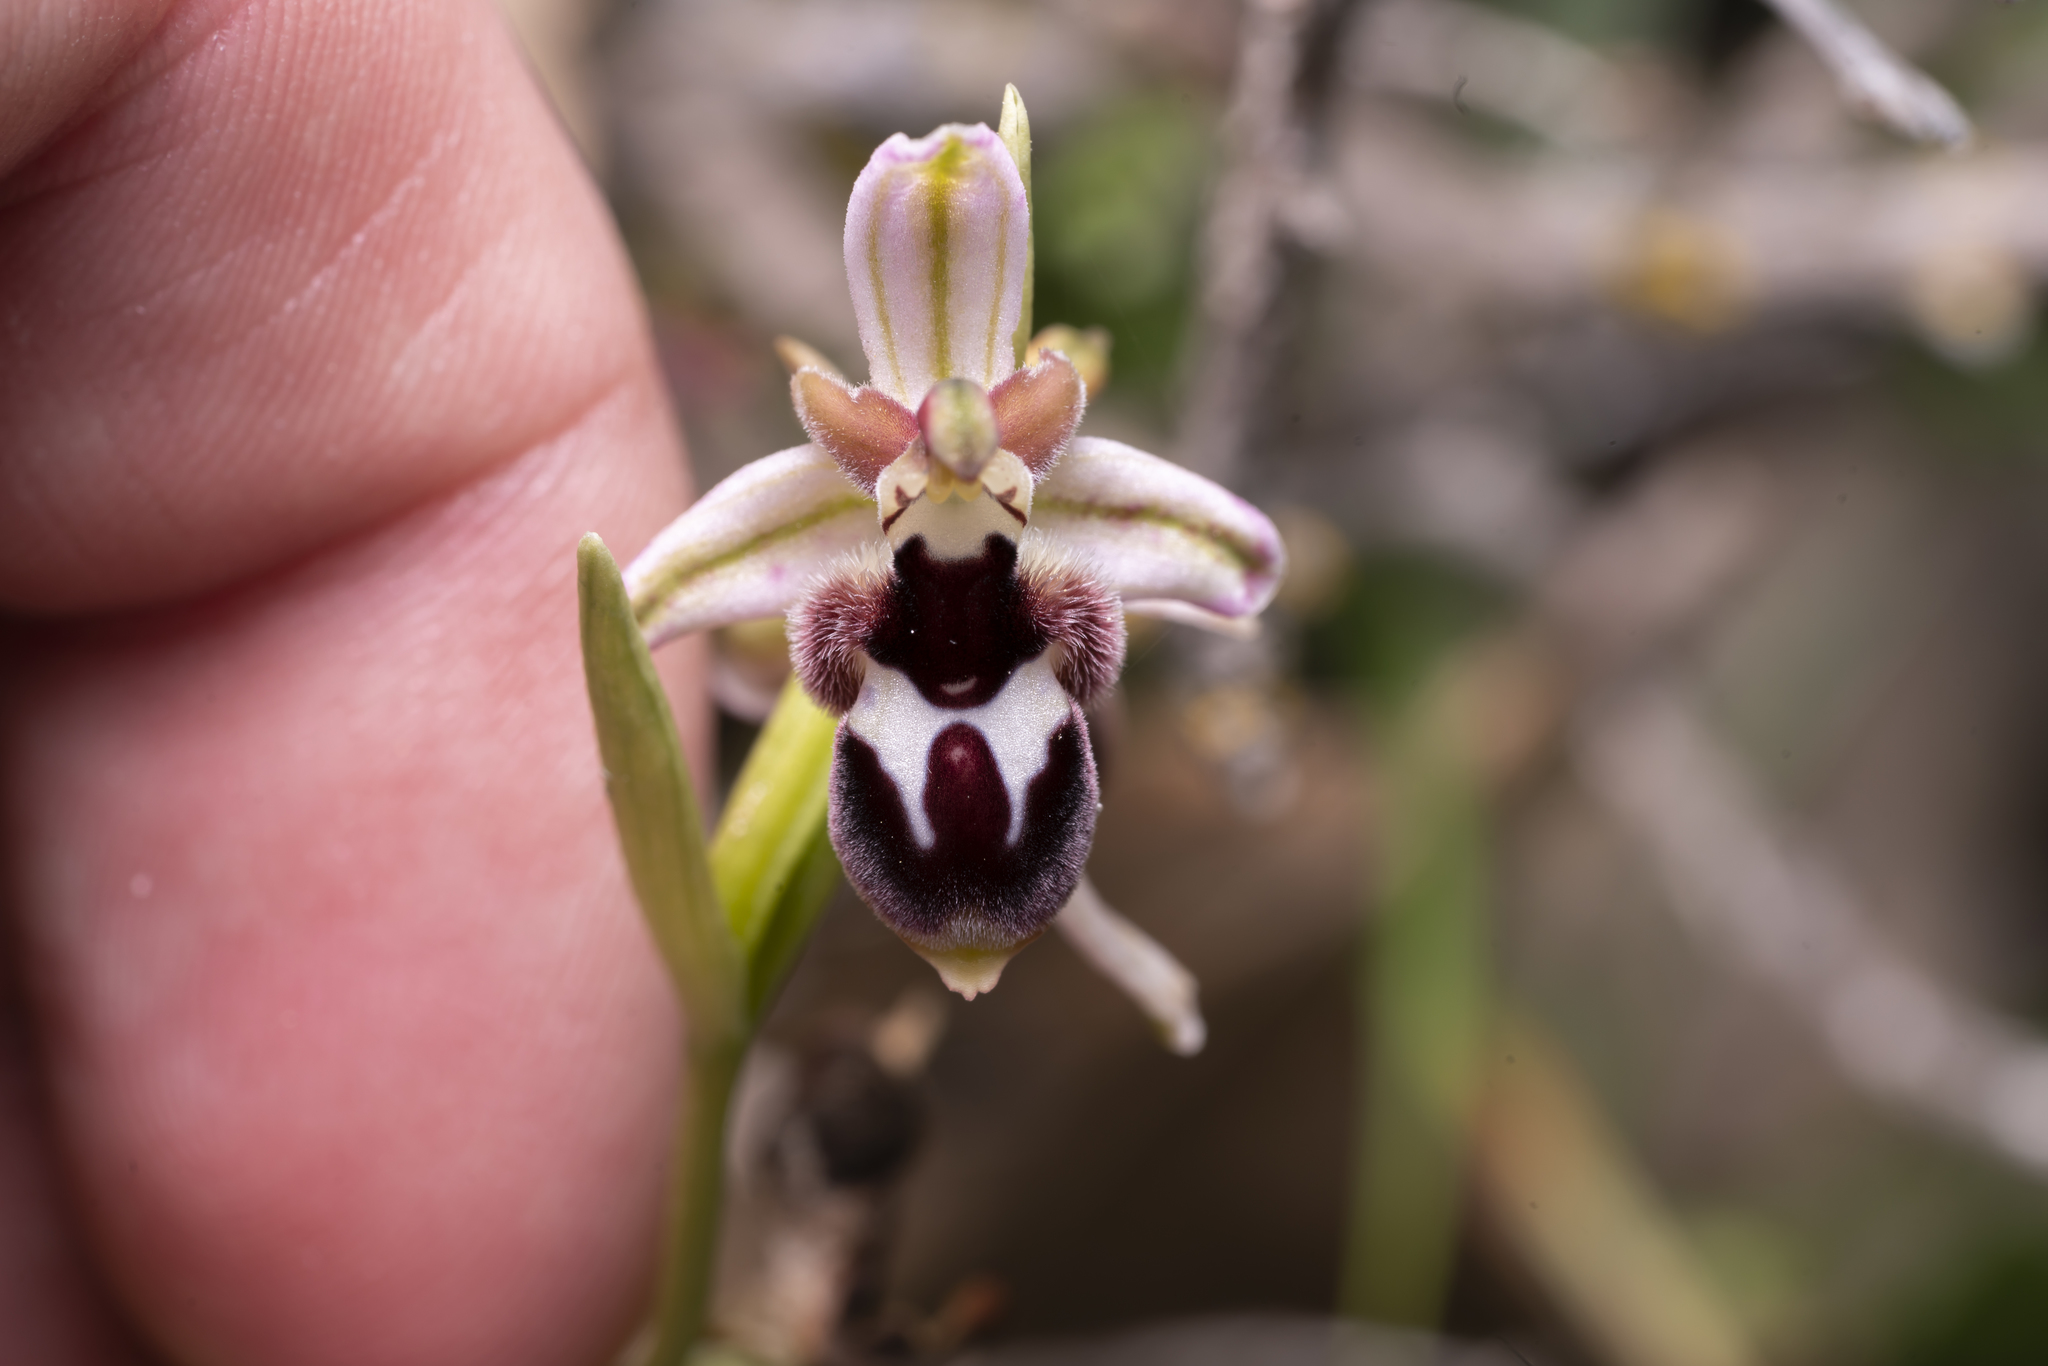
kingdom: Plantae
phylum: Tracheophyta
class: Liliopsida
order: Asparagales
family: Orchidaceae
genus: Ophrys
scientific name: Ophrys reinholdii
